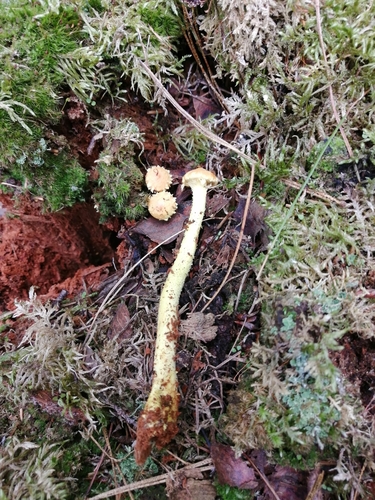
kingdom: Fungi
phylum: Basidiomycota
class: Agaricomycetes
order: Agaricales
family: Strophariaceae
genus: Pholiota
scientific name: Pholiota flammans
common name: Flaming scalycap
